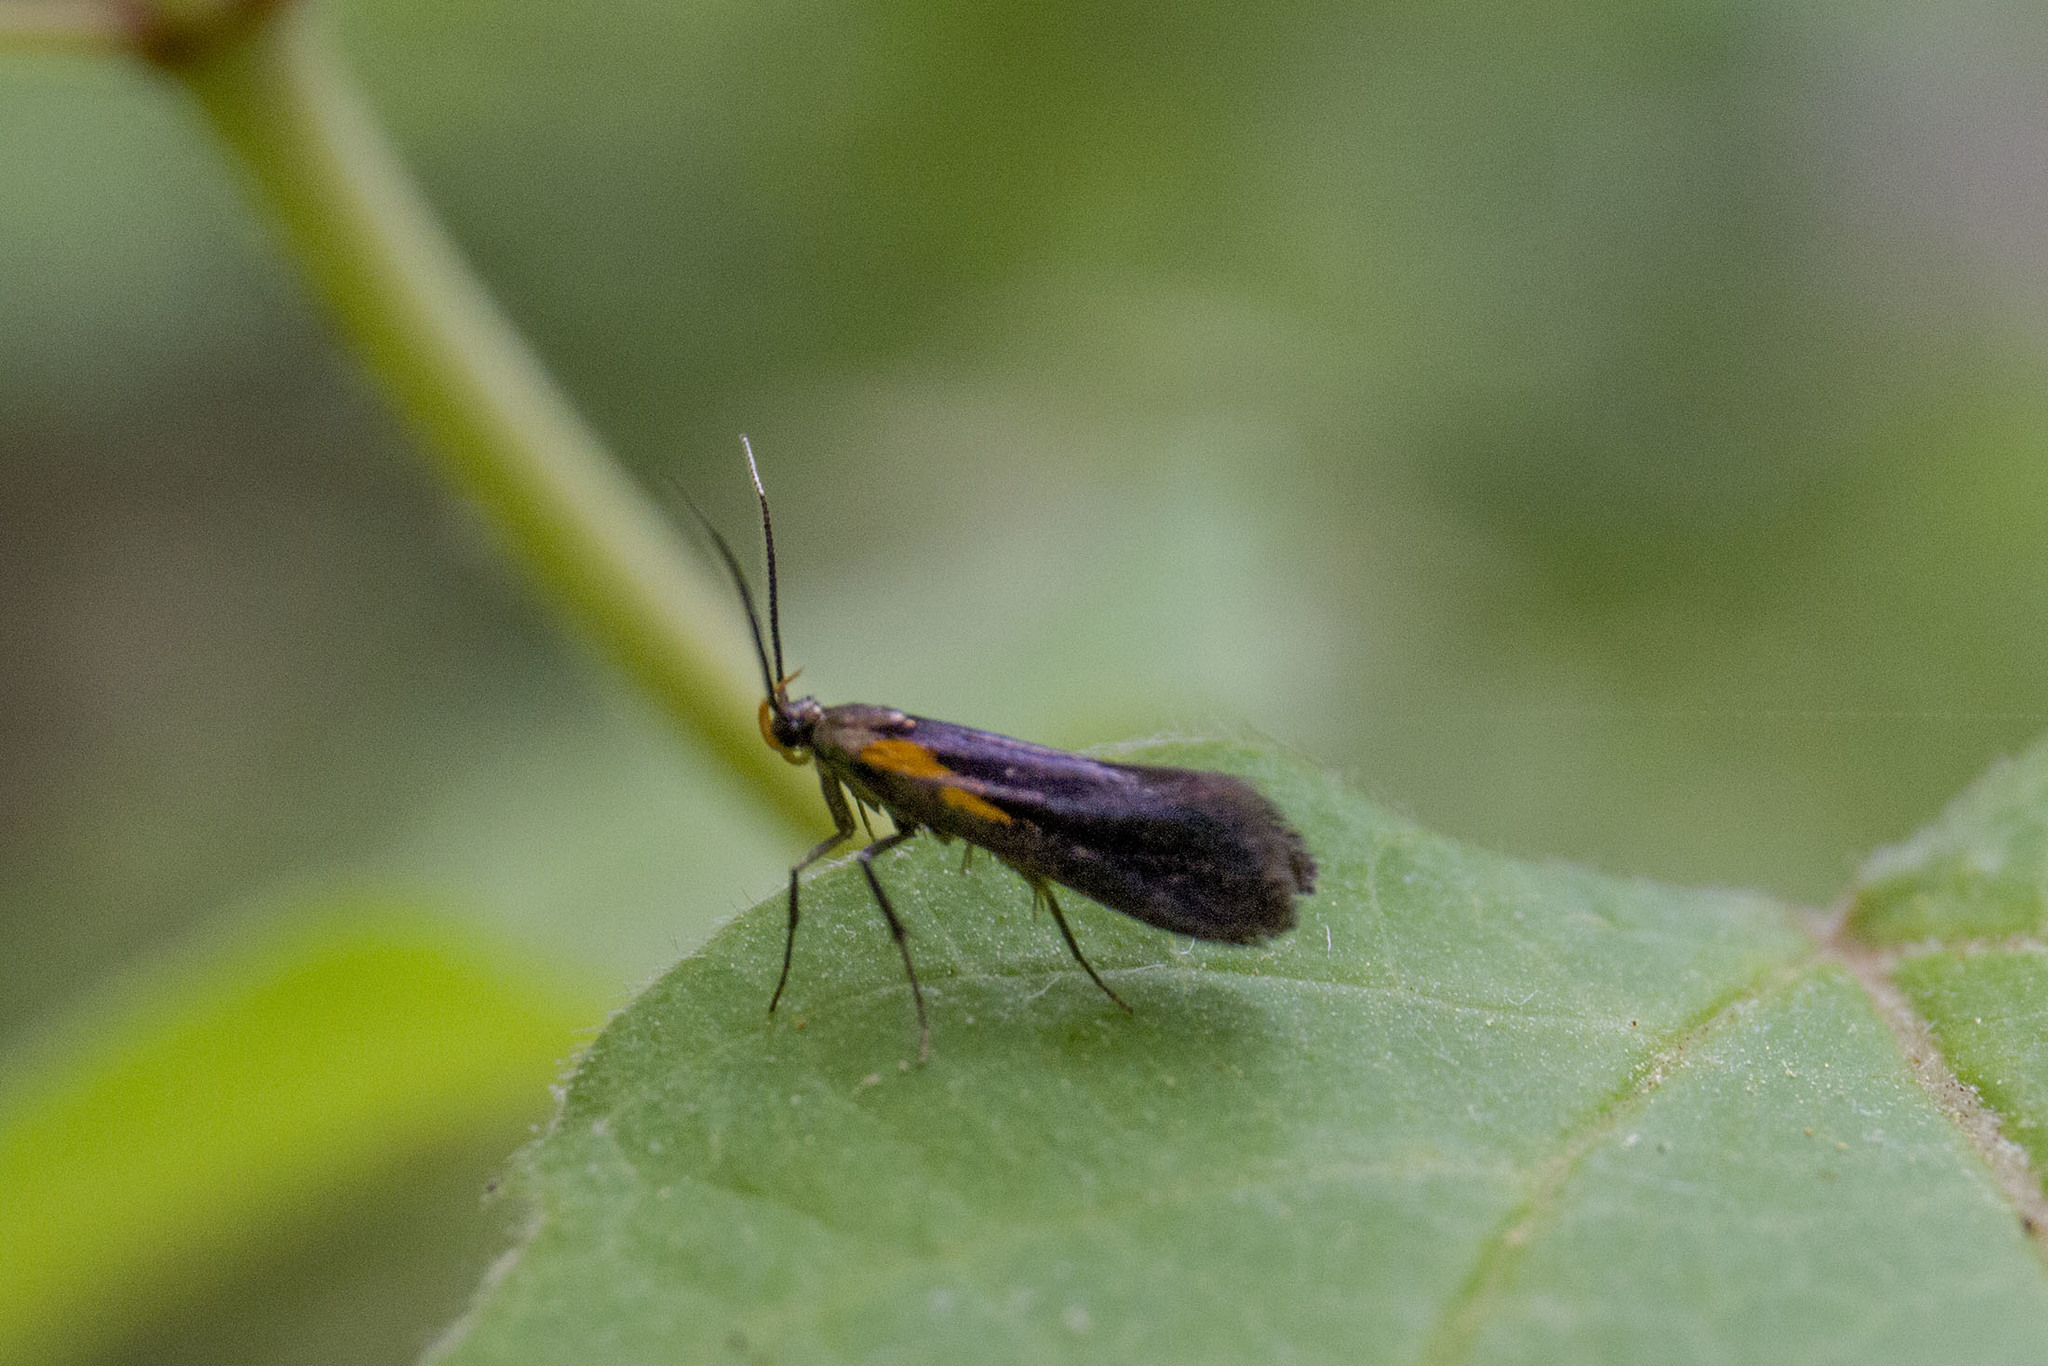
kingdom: Animalia
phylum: Arthropoda
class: Insecta
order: Lepidoptera
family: Oecophoridae
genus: Mathildana
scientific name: Mathildana newmanella
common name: Newman's mathildana moth
